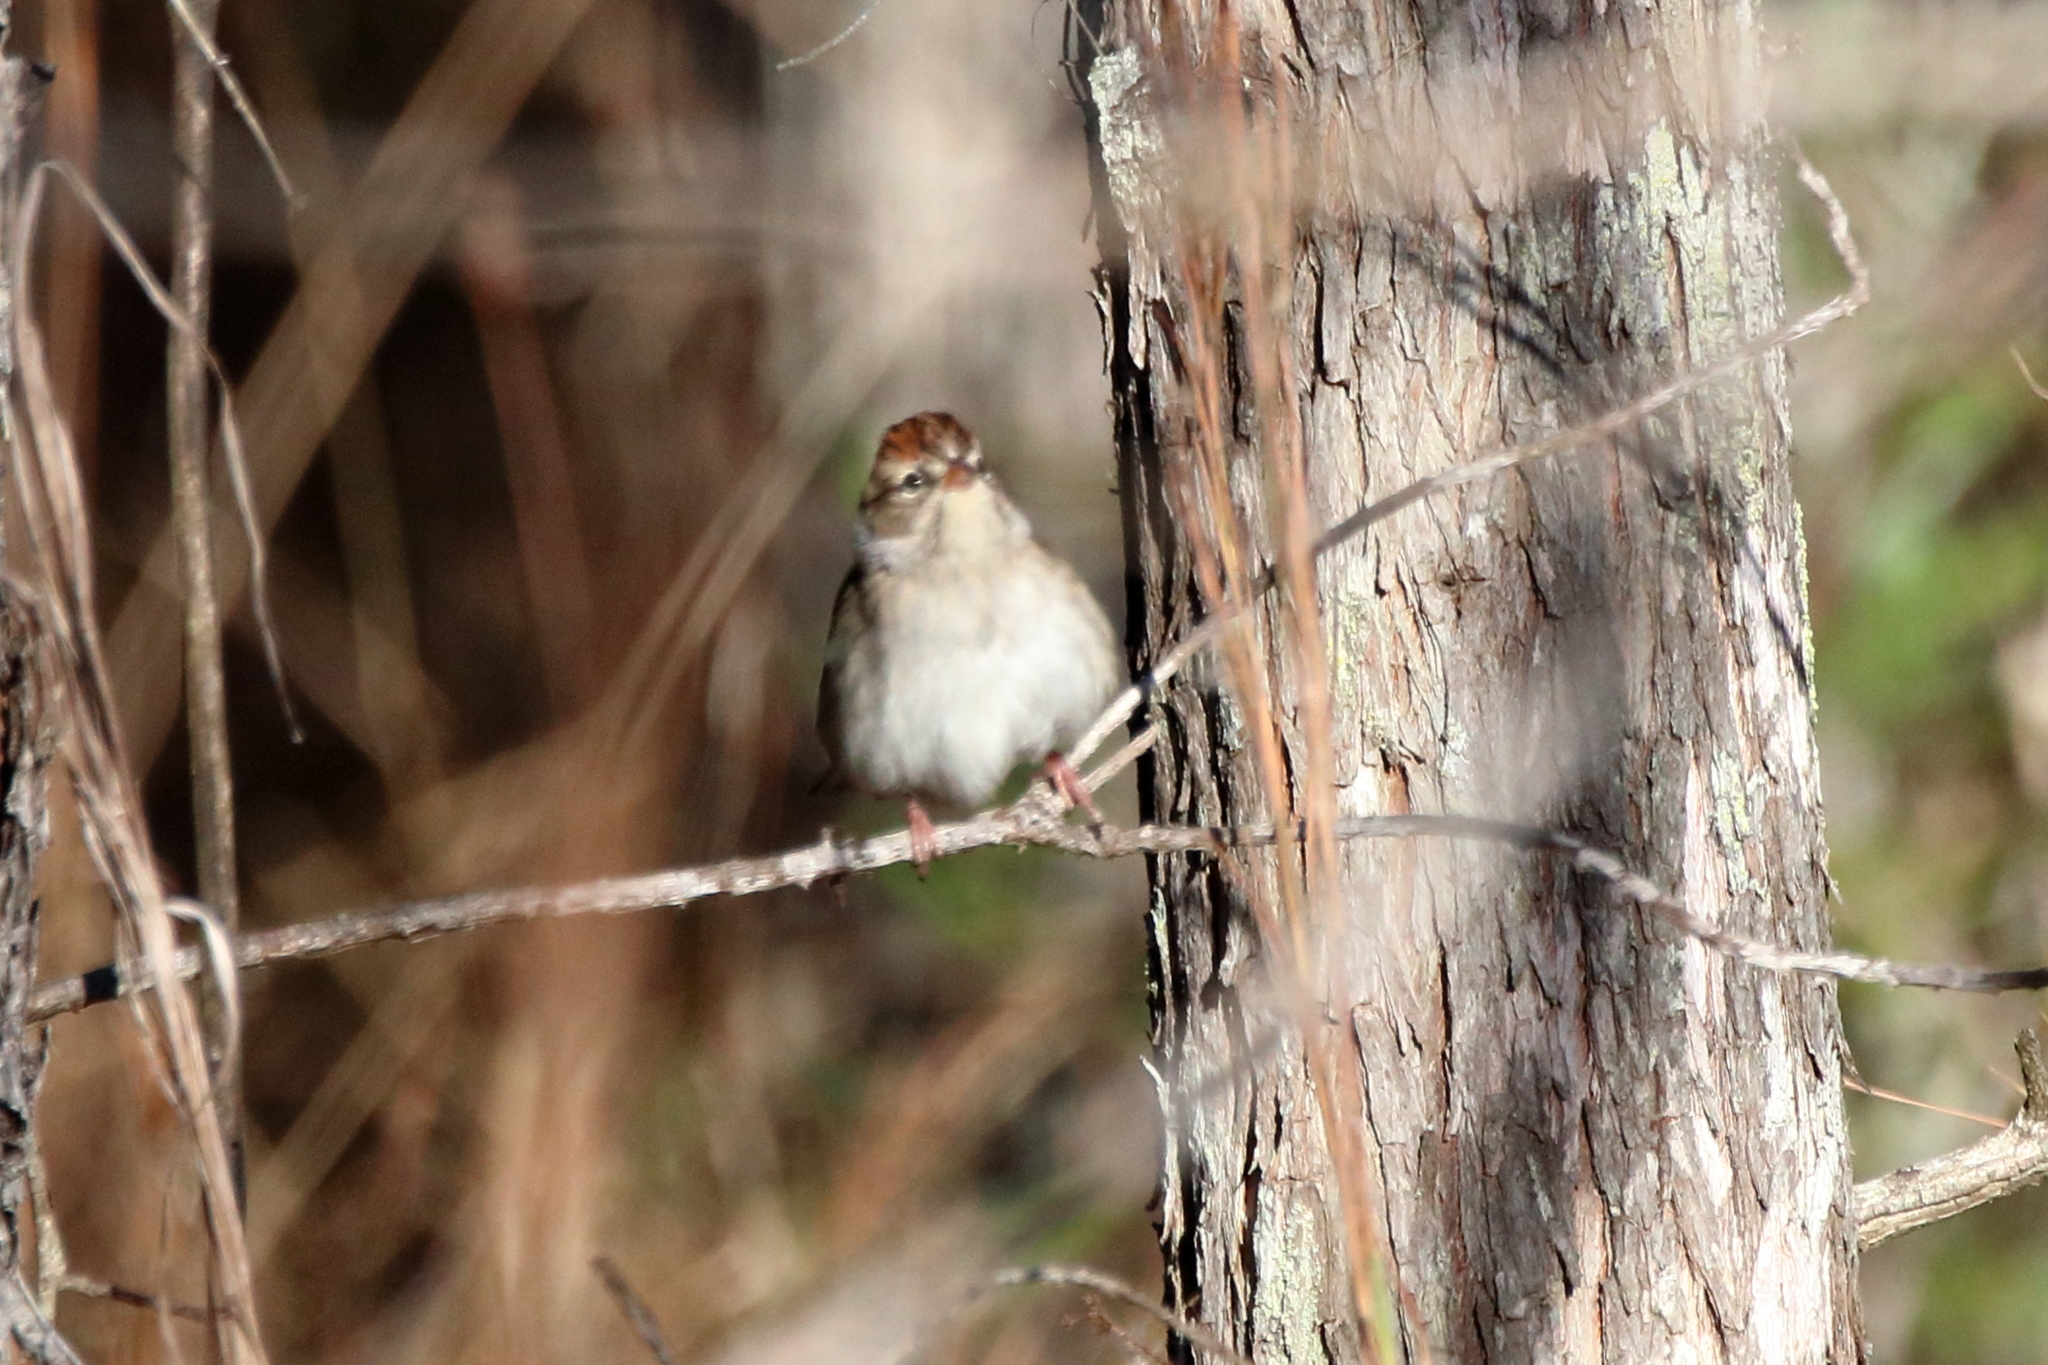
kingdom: Animalia
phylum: Chordata
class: Aves
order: Passeriformes
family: Passerellidae
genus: Spizella
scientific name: Spizella passerina
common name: Chipping sparrow
